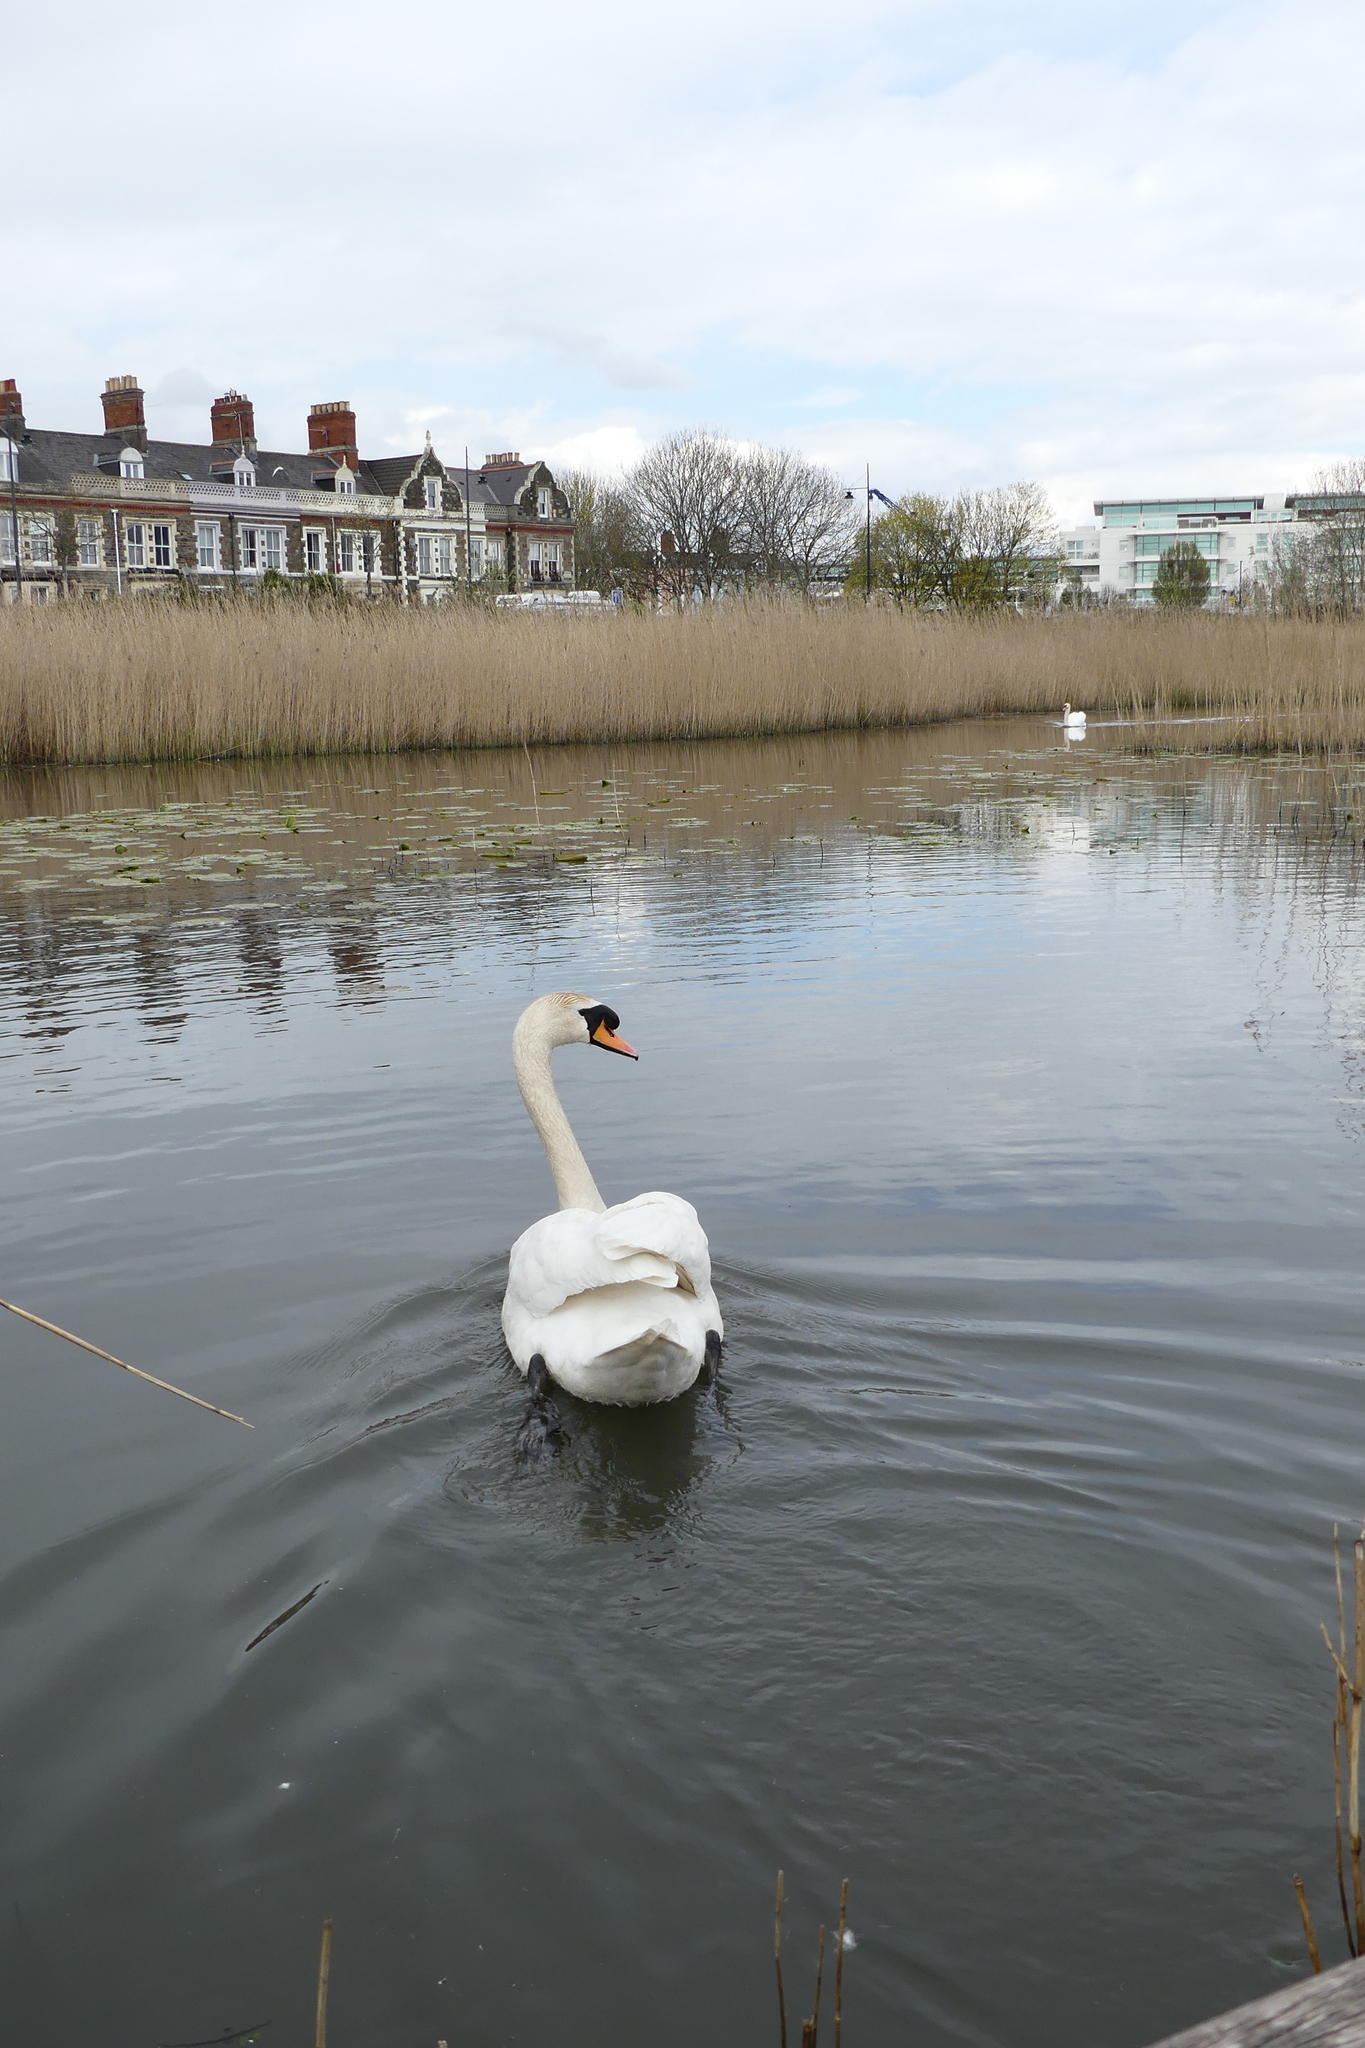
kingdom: Animalia
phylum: Chordata
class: Aves
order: Anseriformes
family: Anatidae
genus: Cygnus
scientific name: Cygnus olor
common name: Mute swan
